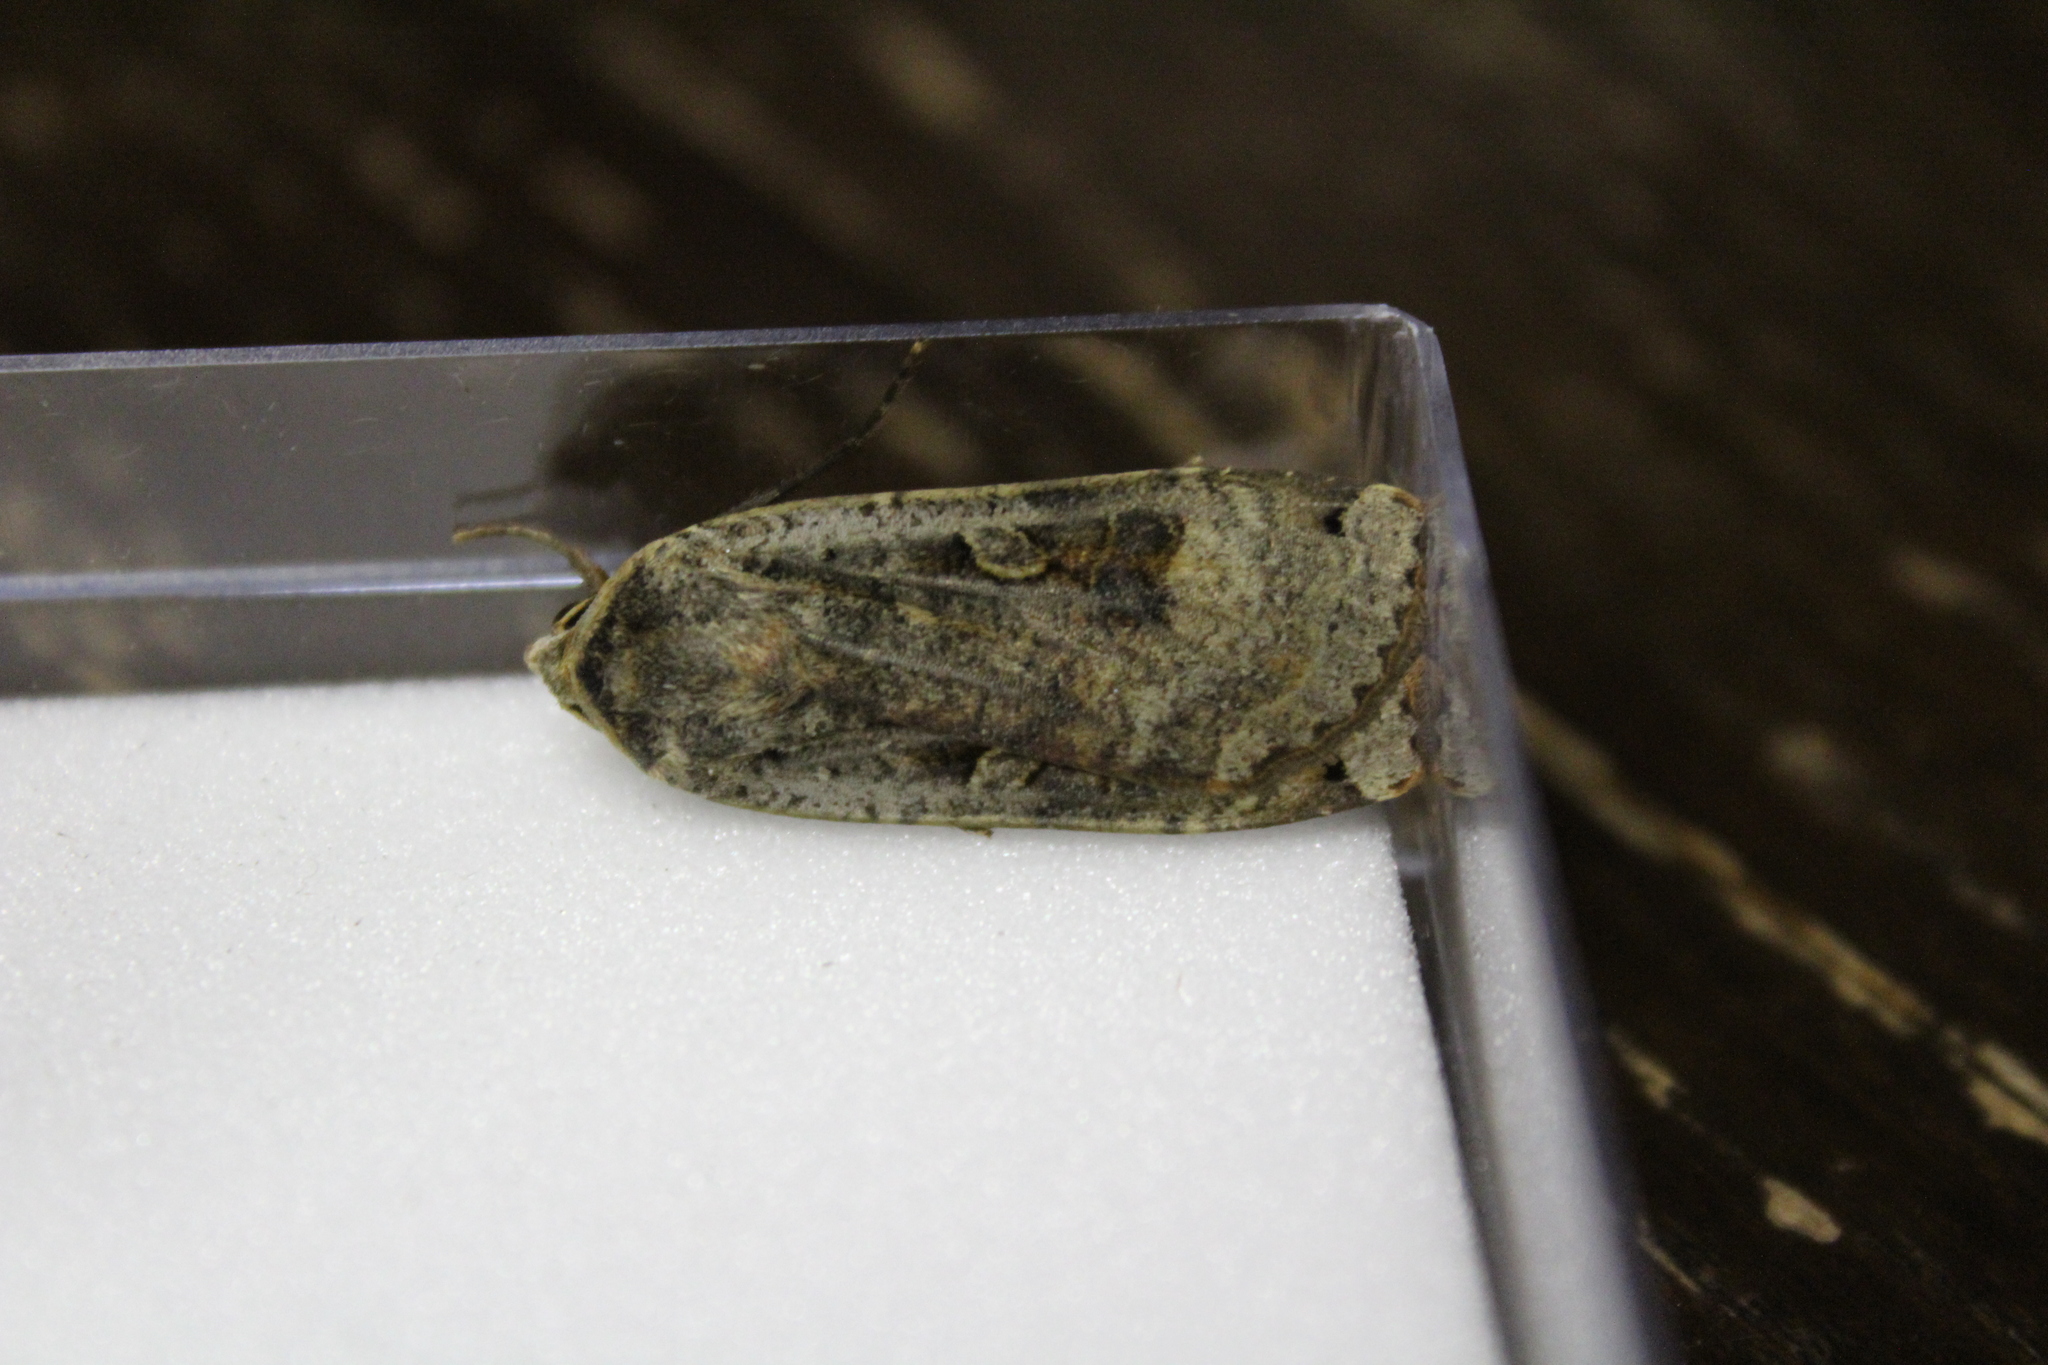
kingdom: Animalia
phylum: Arthropoda
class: Insecta
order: Lepidoptera
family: Noctuidae
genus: Noctua
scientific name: Noctua pronuba
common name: Large yellow underwing
